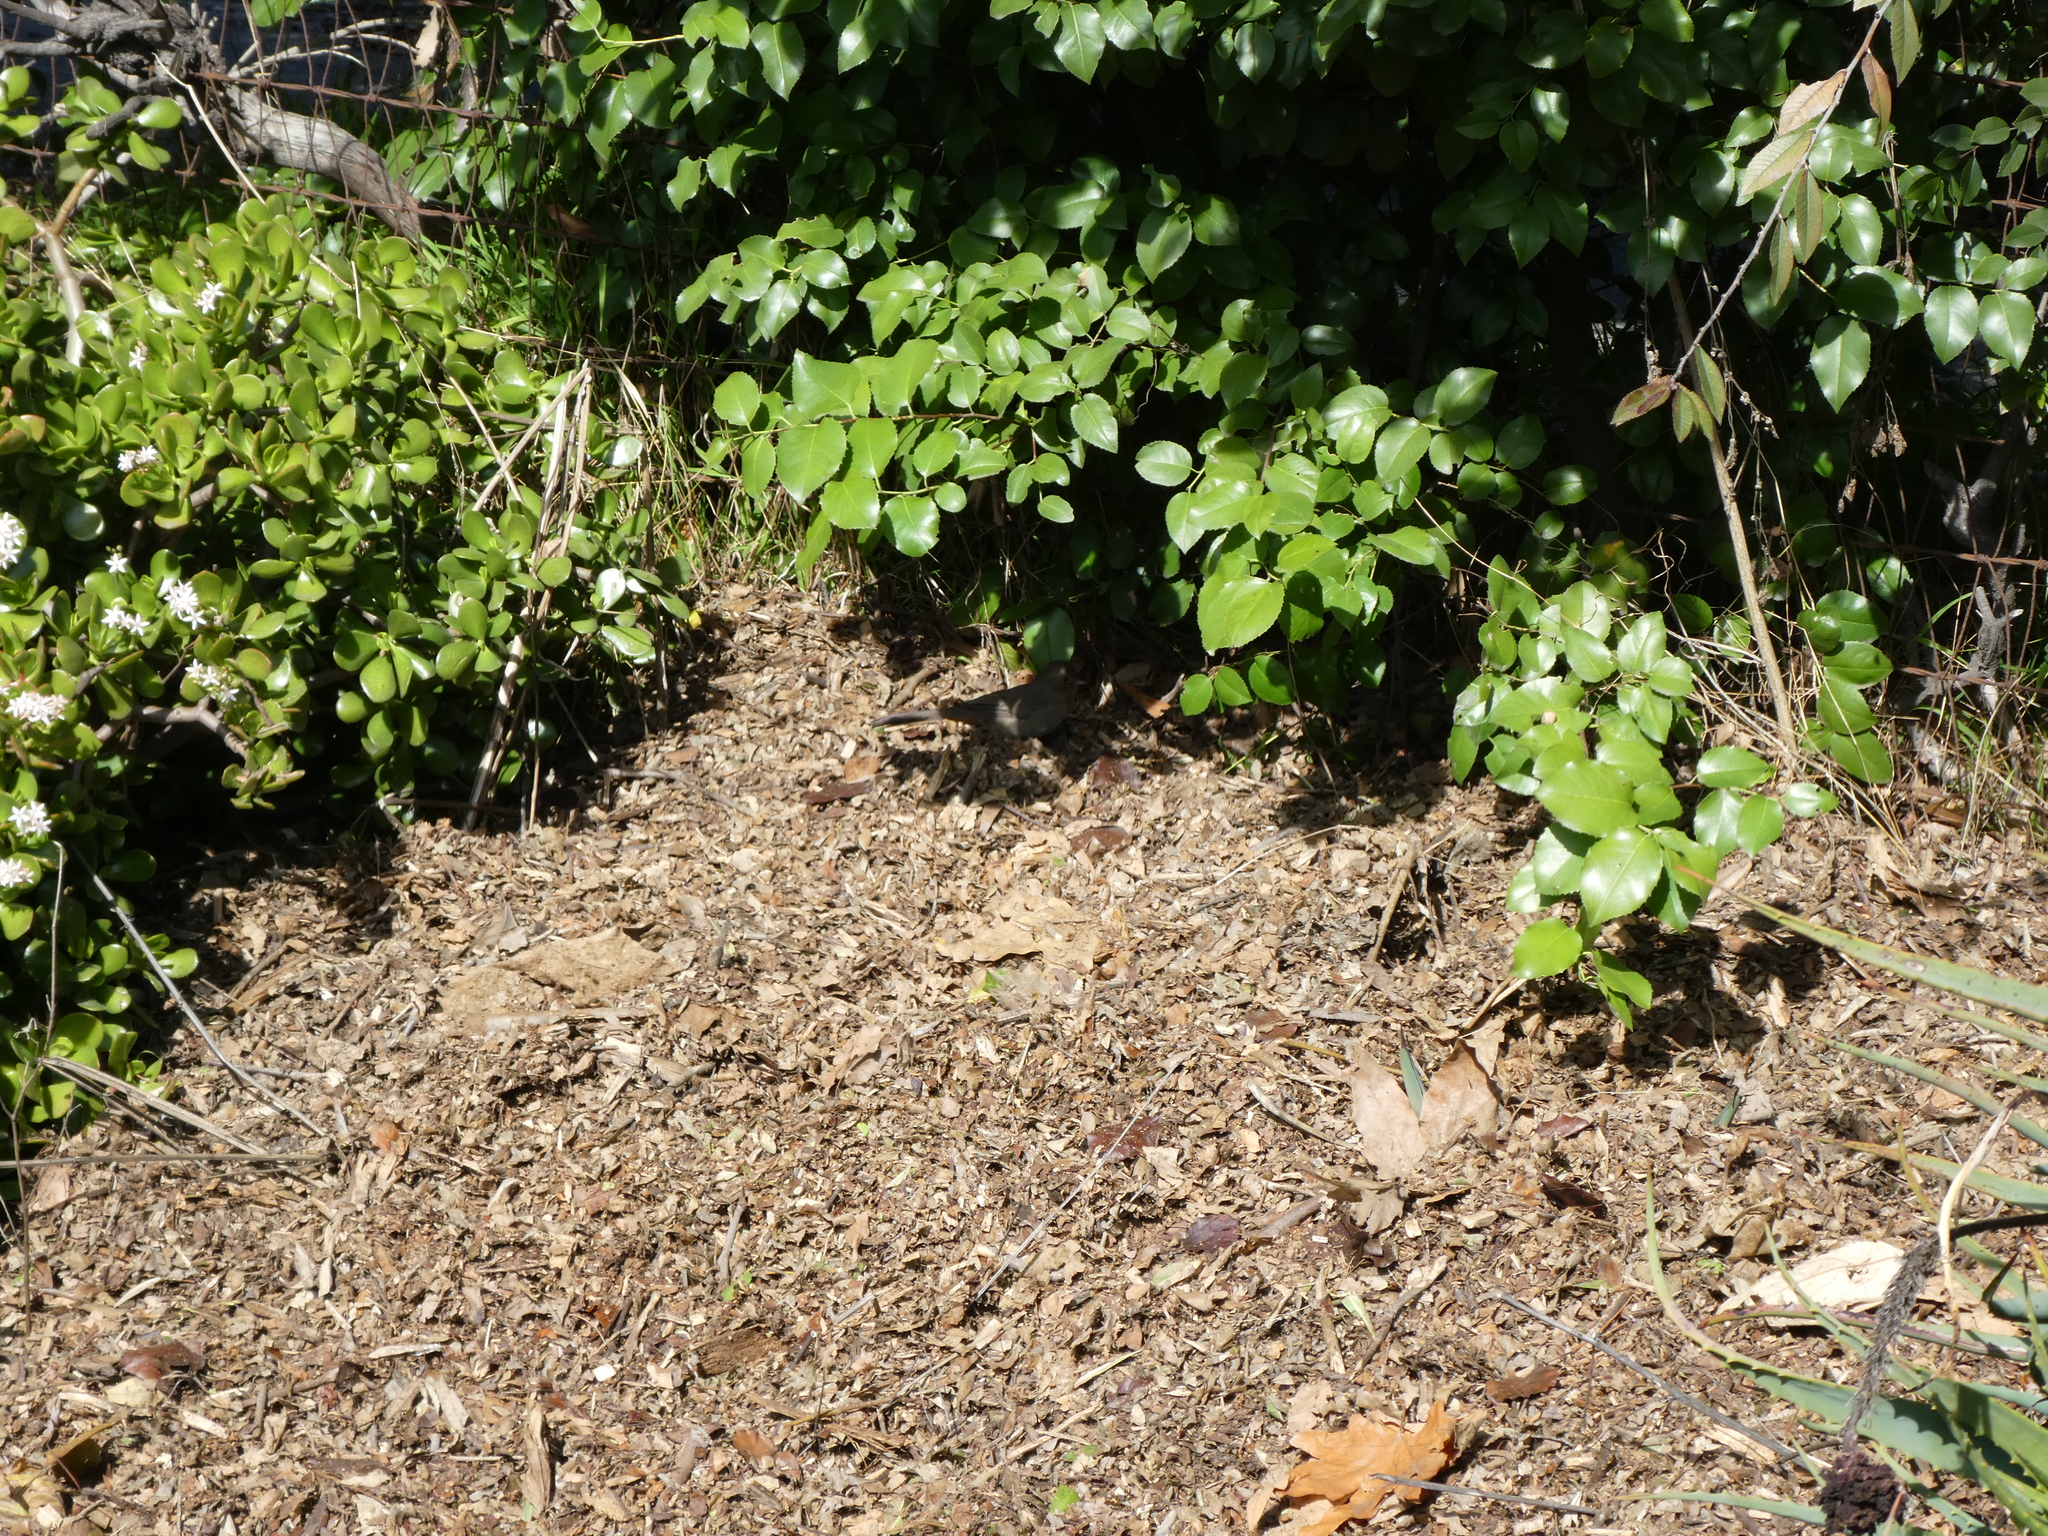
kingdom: Animalia
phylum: Chordata
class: Aves
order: Passeriformes
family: Passerellidae
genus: Melozone
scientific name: Melozone crissalis
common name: California towhee
